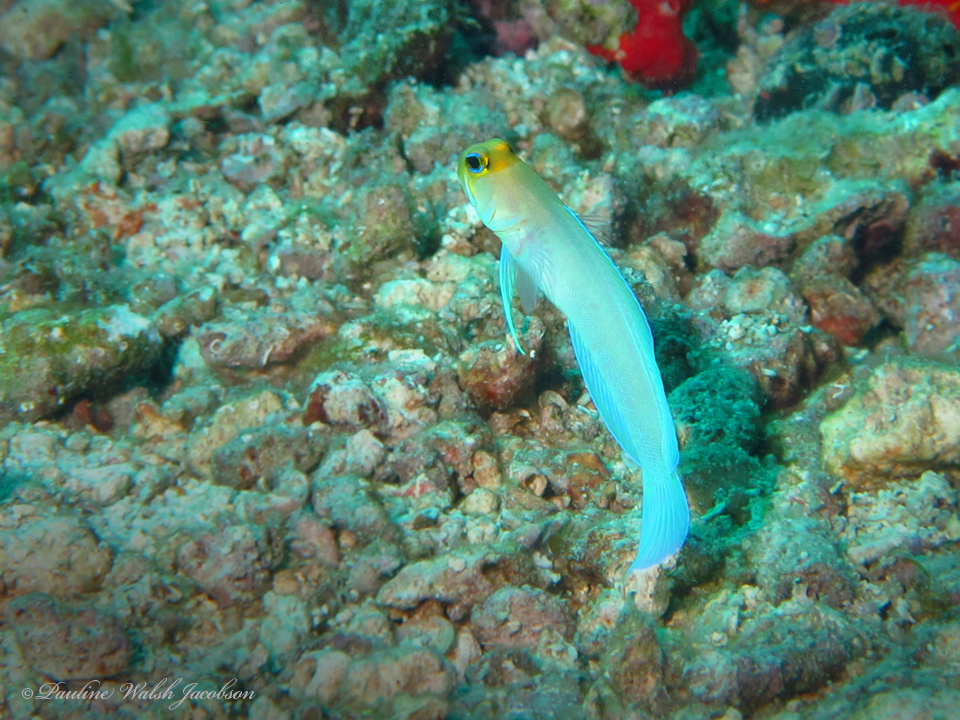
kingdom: Animalia
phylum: Chordata
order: Perciformes
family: Opistognathidae
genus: Opistognathus
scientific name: Opistognathus aurifrons
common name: Yellowhead jawfish
